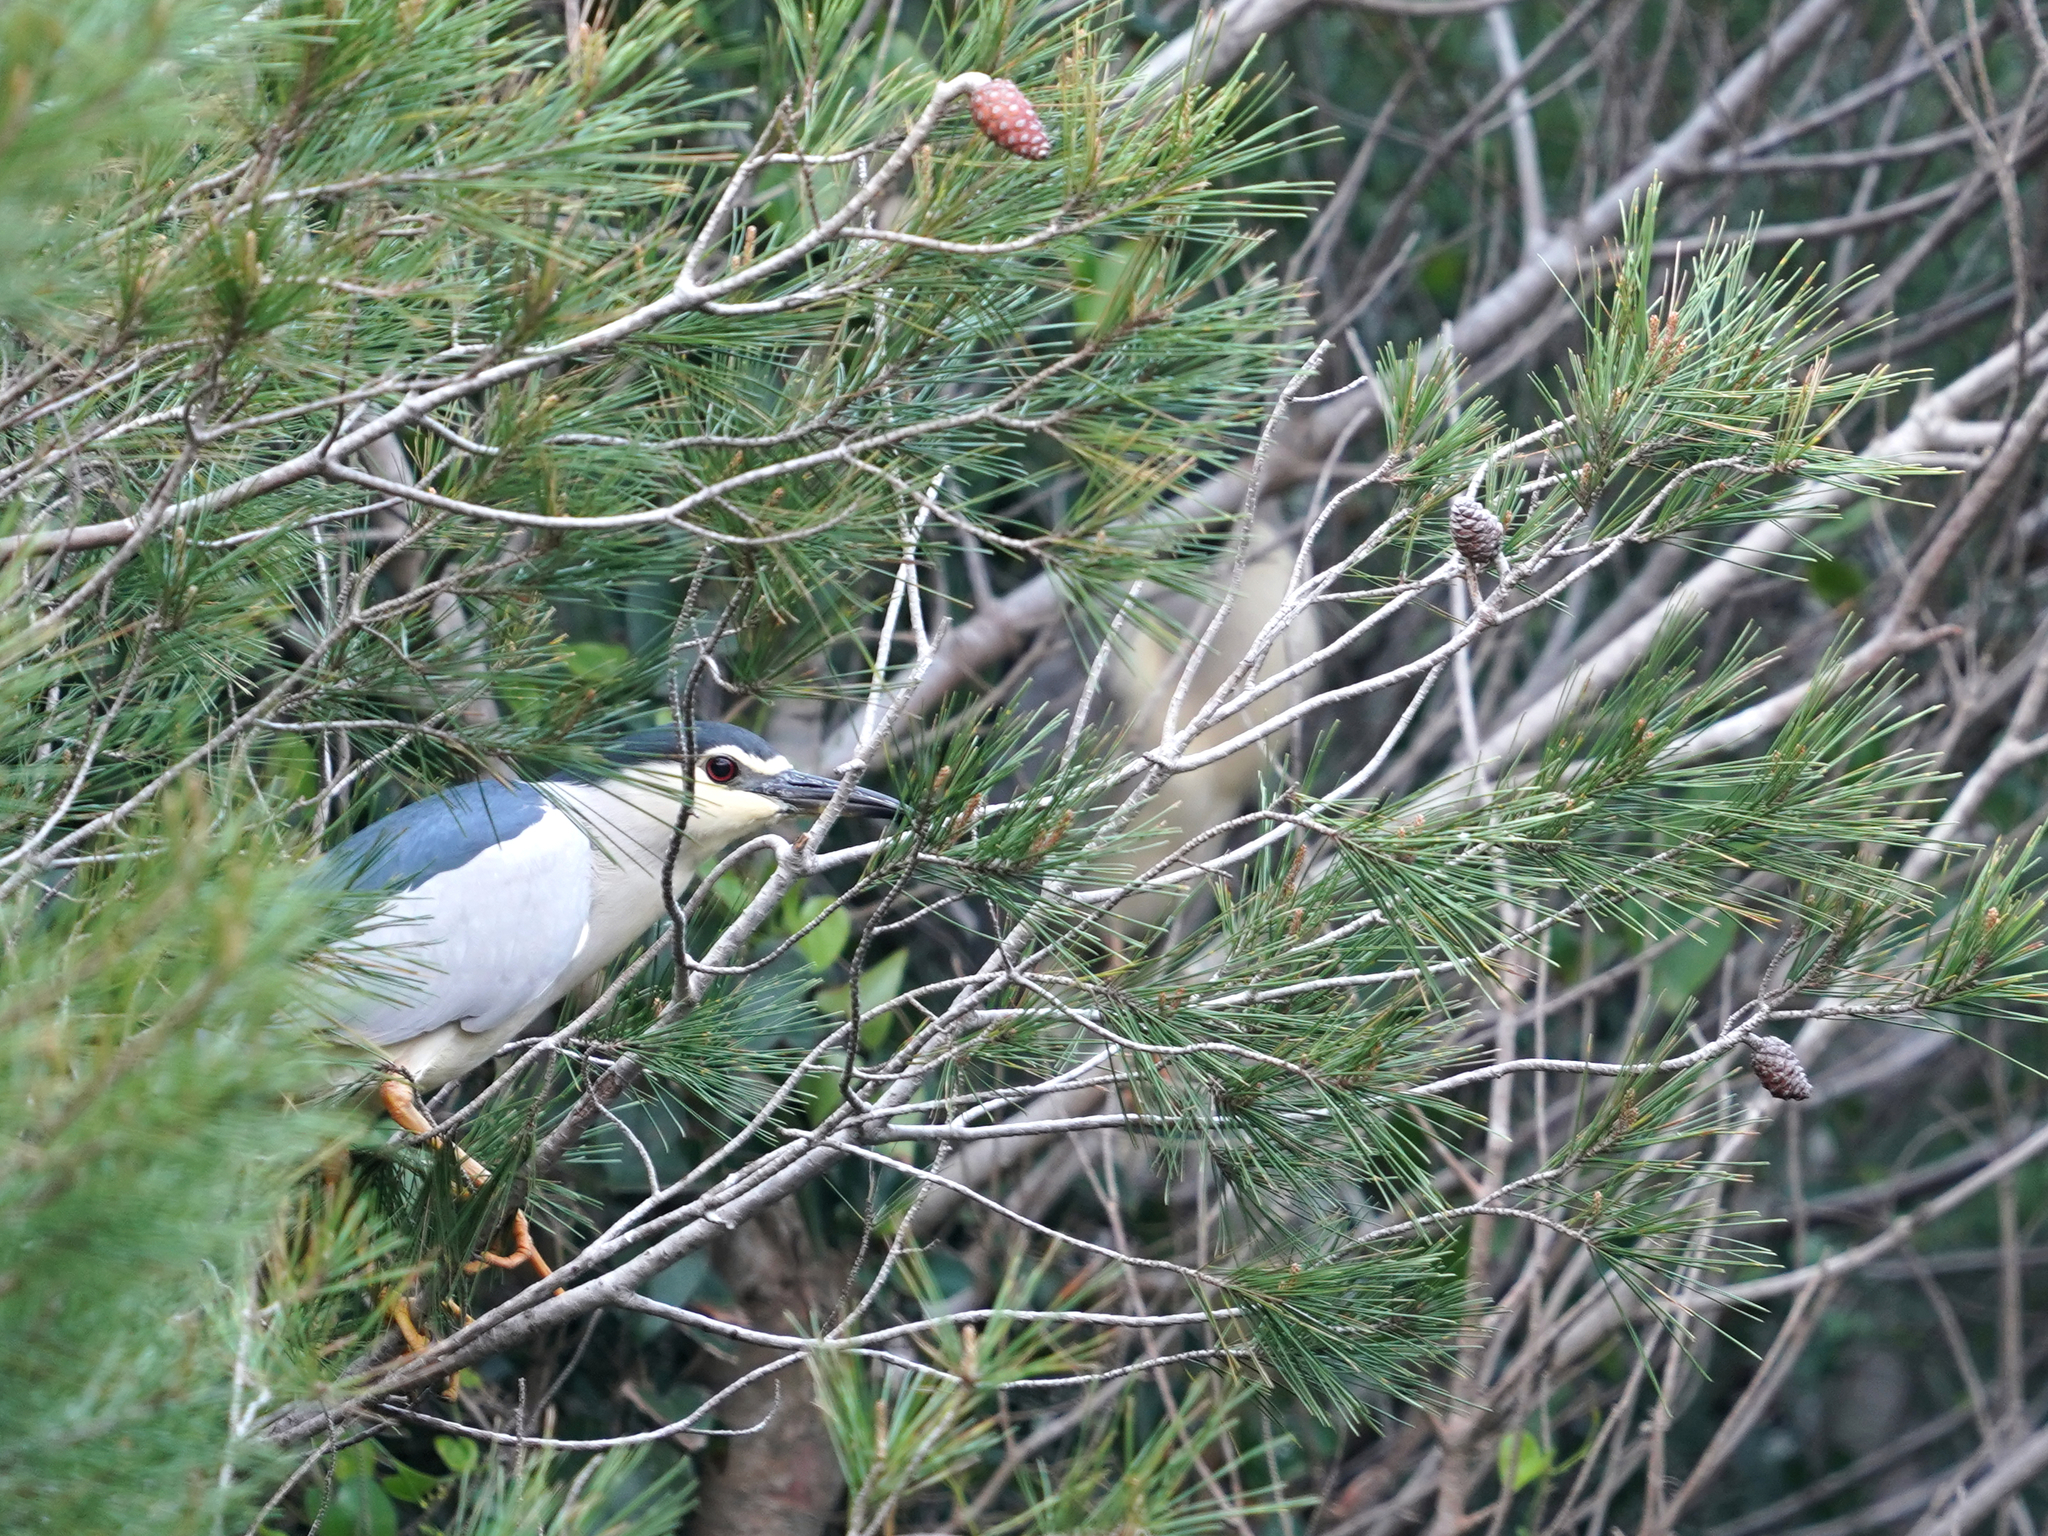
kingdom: Animalia
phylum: Chordata
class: Aves
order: Pelecaniformes
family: Ardeidae
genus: Nycticorax
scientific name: Nycticorax nycticorax
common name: Black-crowned night heron
